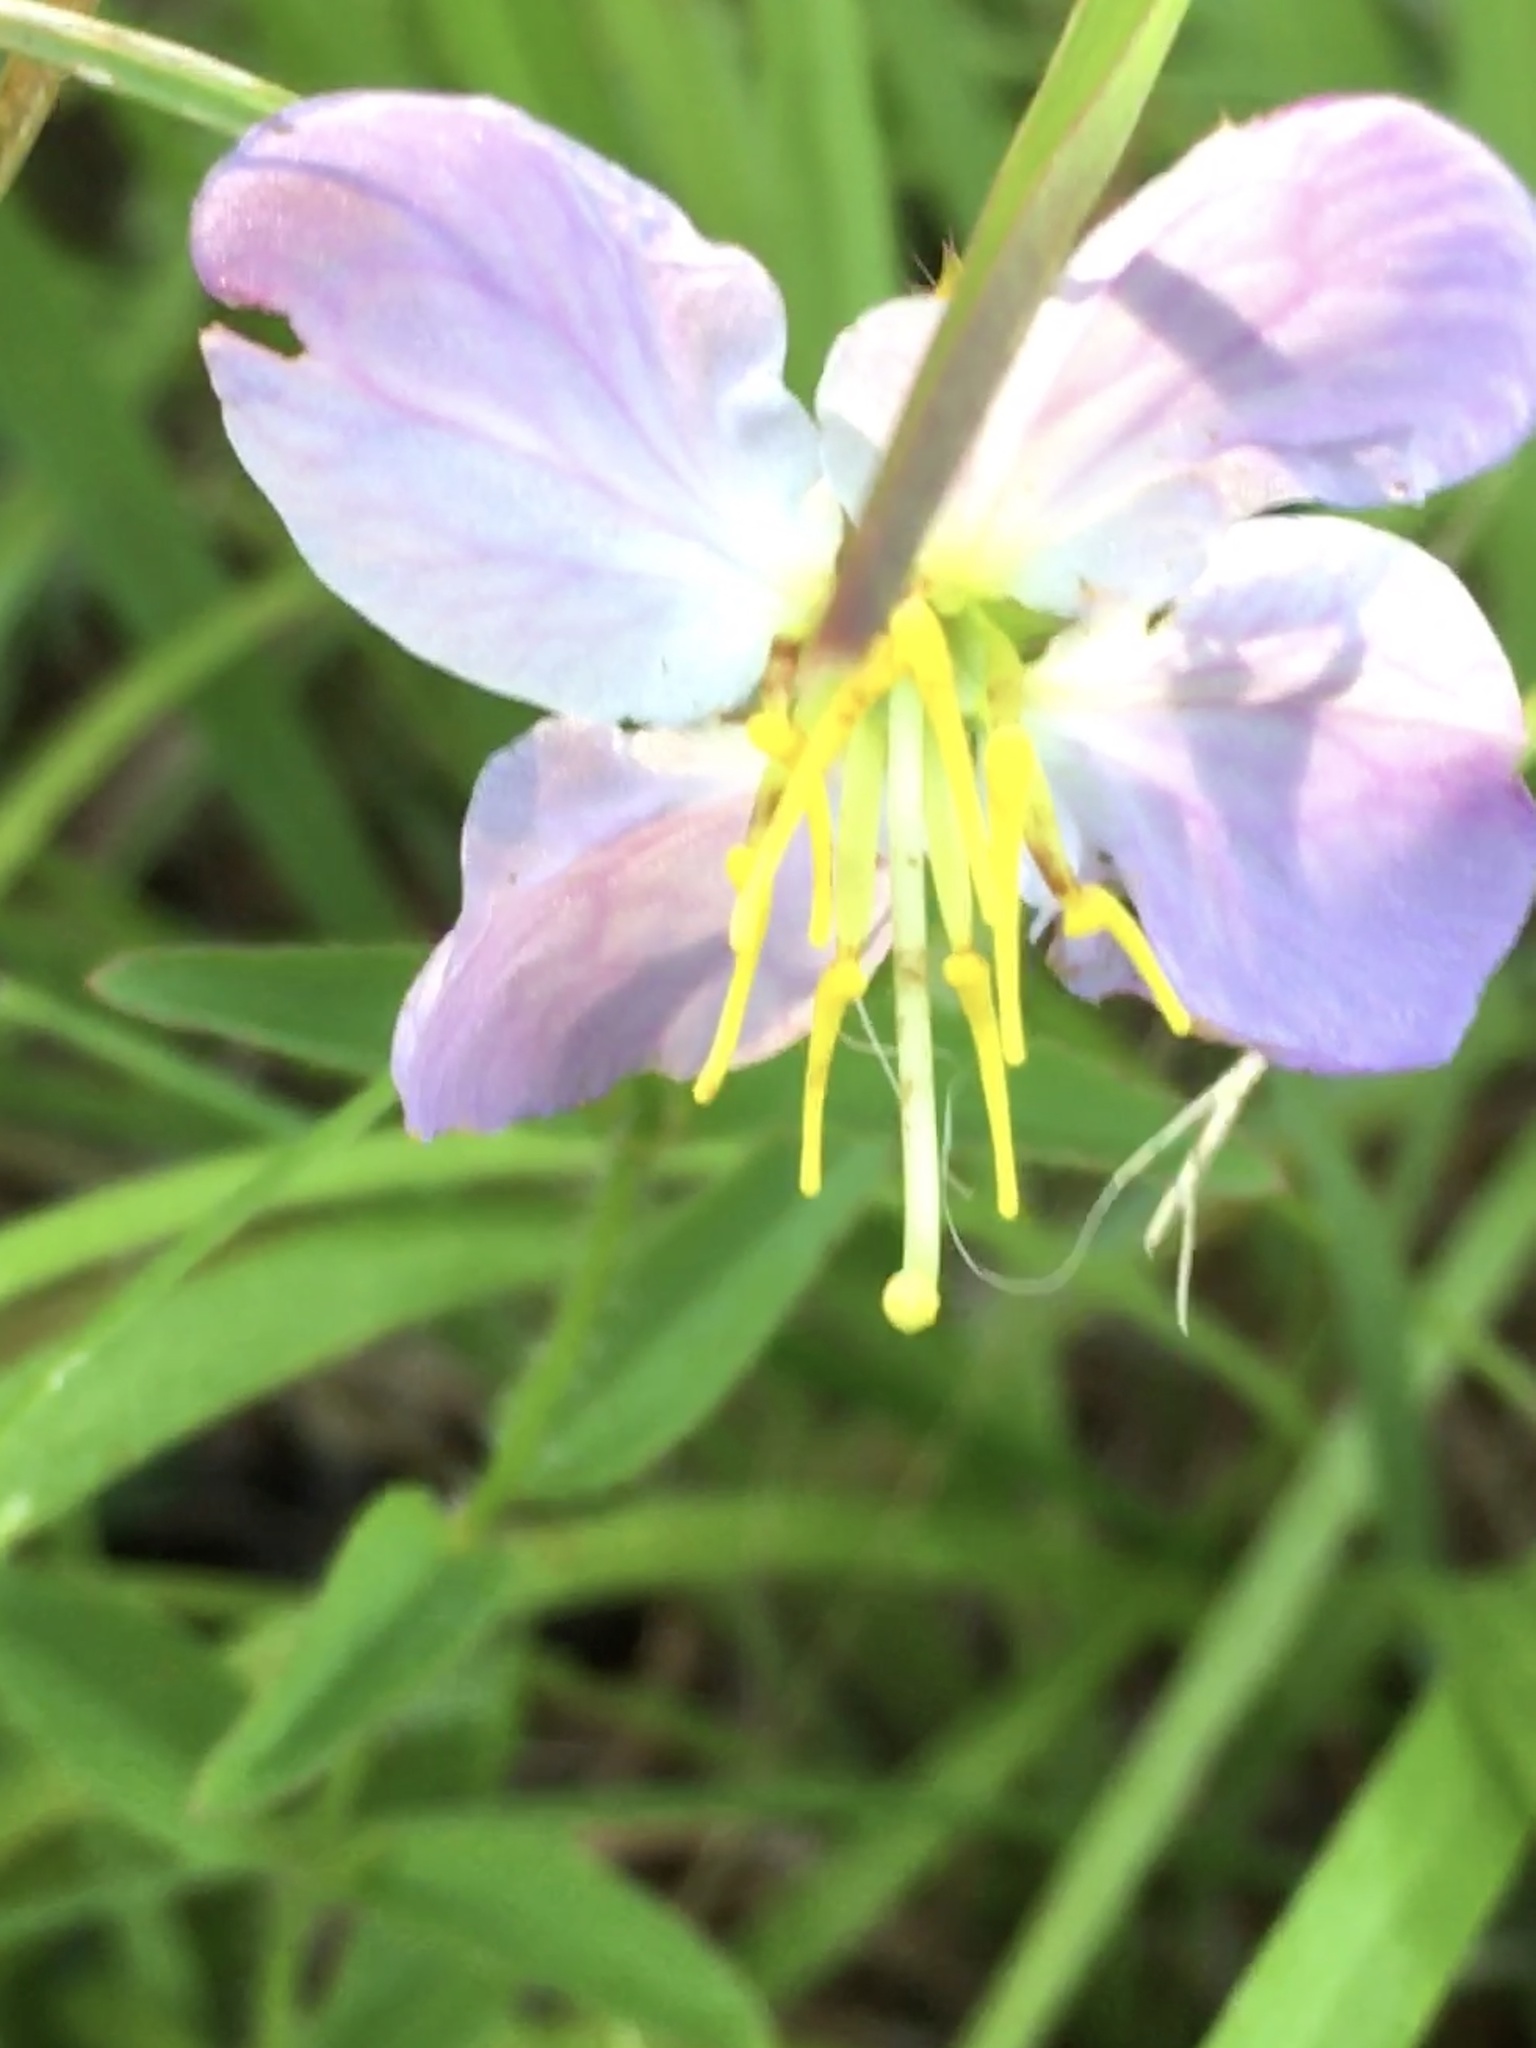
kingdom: Plantae
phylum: Tracheophyta
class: Magnoliopsida
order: Myrtales
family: Melastomataceae
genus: Rhexia
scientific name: Rhexia mariana
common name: Dull meadow-pitcher
